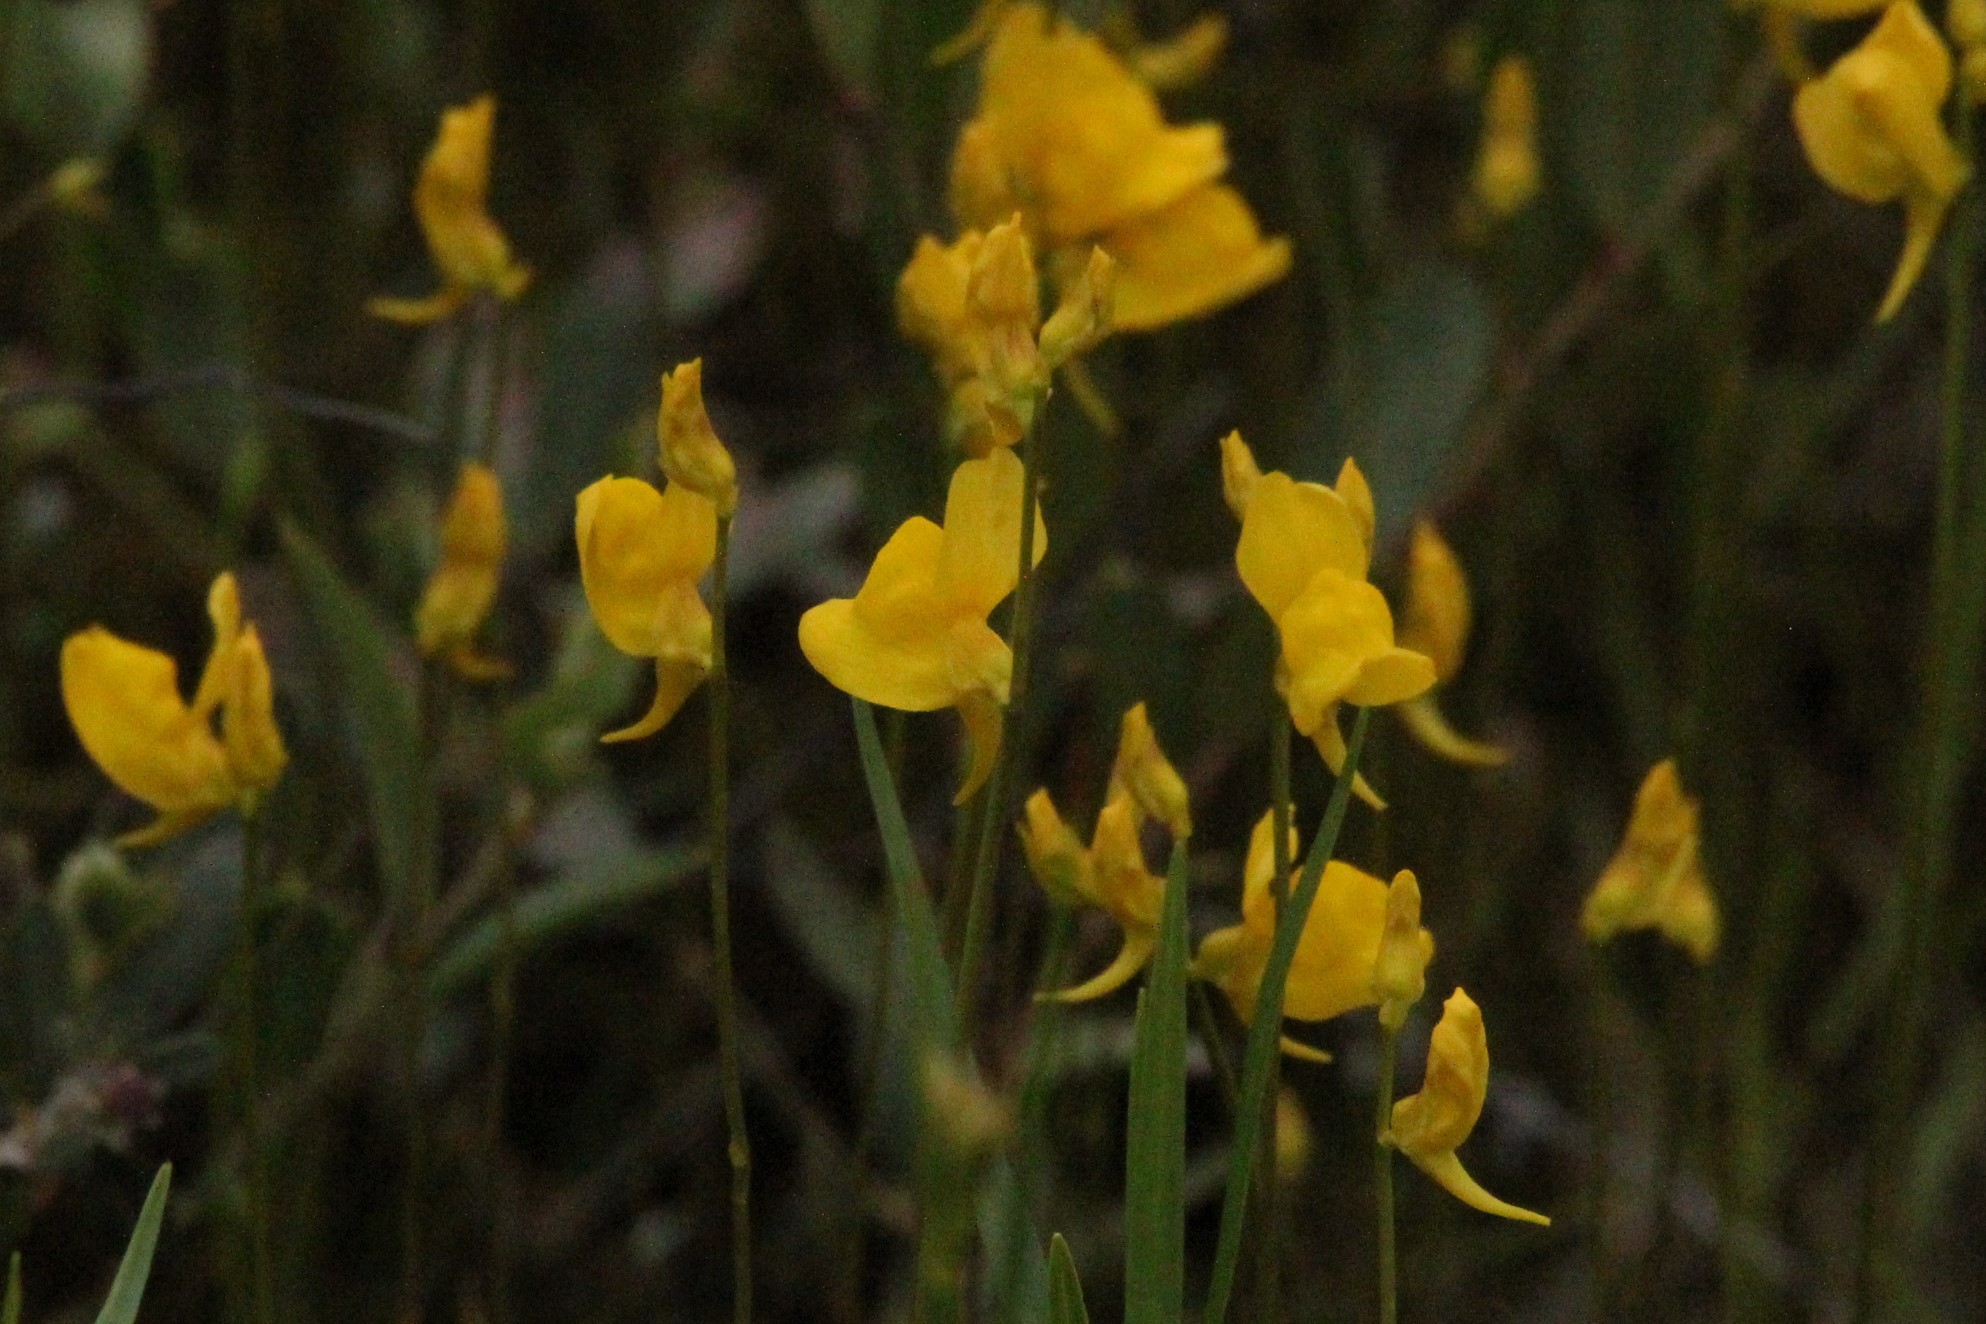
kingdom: Plantae
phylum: Tracheophyta
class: Magnoliopsida
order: Lamiales
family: Lentibulariaceae
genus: Utricularia
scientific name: Utricularia cornuta
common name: Horned bladderwort
